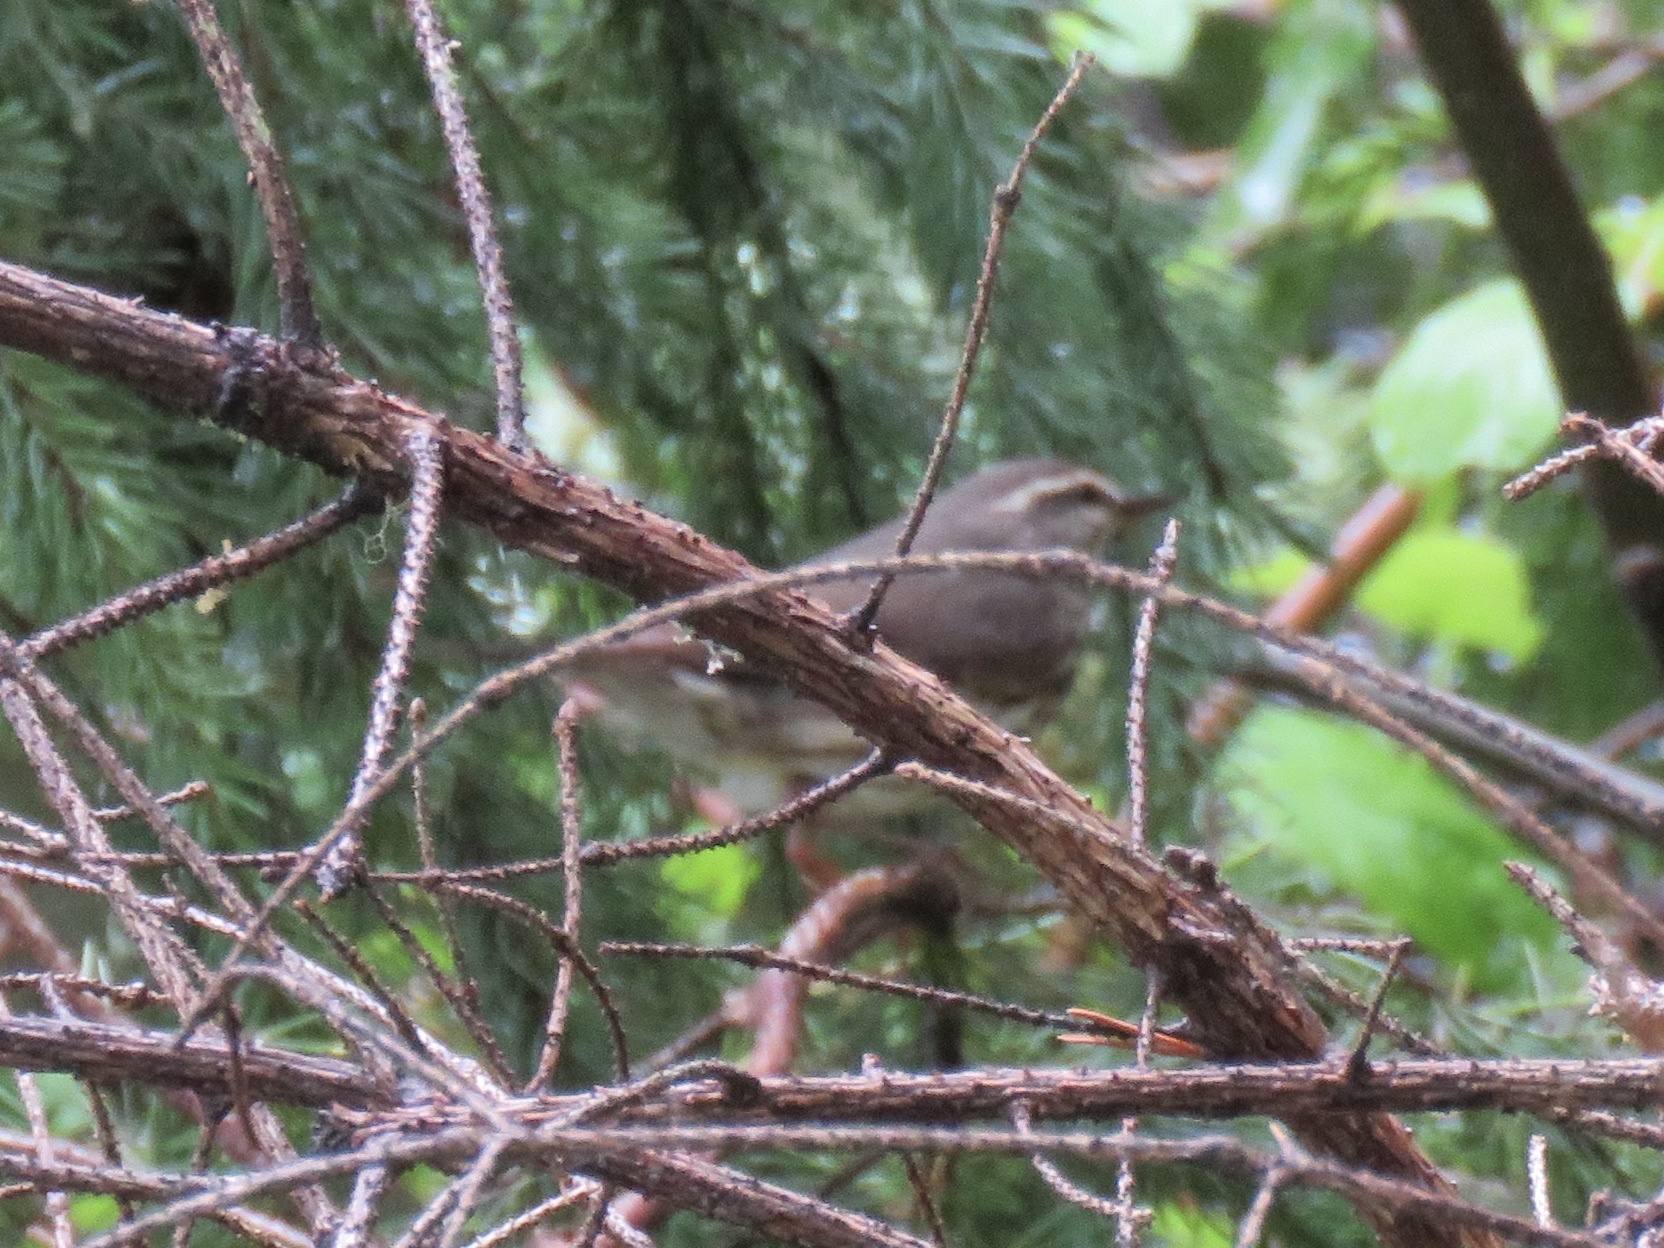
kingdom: Animalia
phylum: Chordata
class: Aves
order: Passeriformes
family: Parulidae
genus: Parkesia
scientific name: Parkesia noveboracensis
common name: Northern waterthrush
